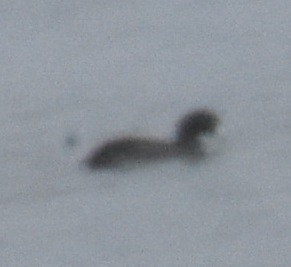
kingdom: Animalia
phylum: Chordata
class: Aves
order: Gruiformes
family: Rallidae
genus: Fulica
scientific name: Fulica americana
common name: American coot
